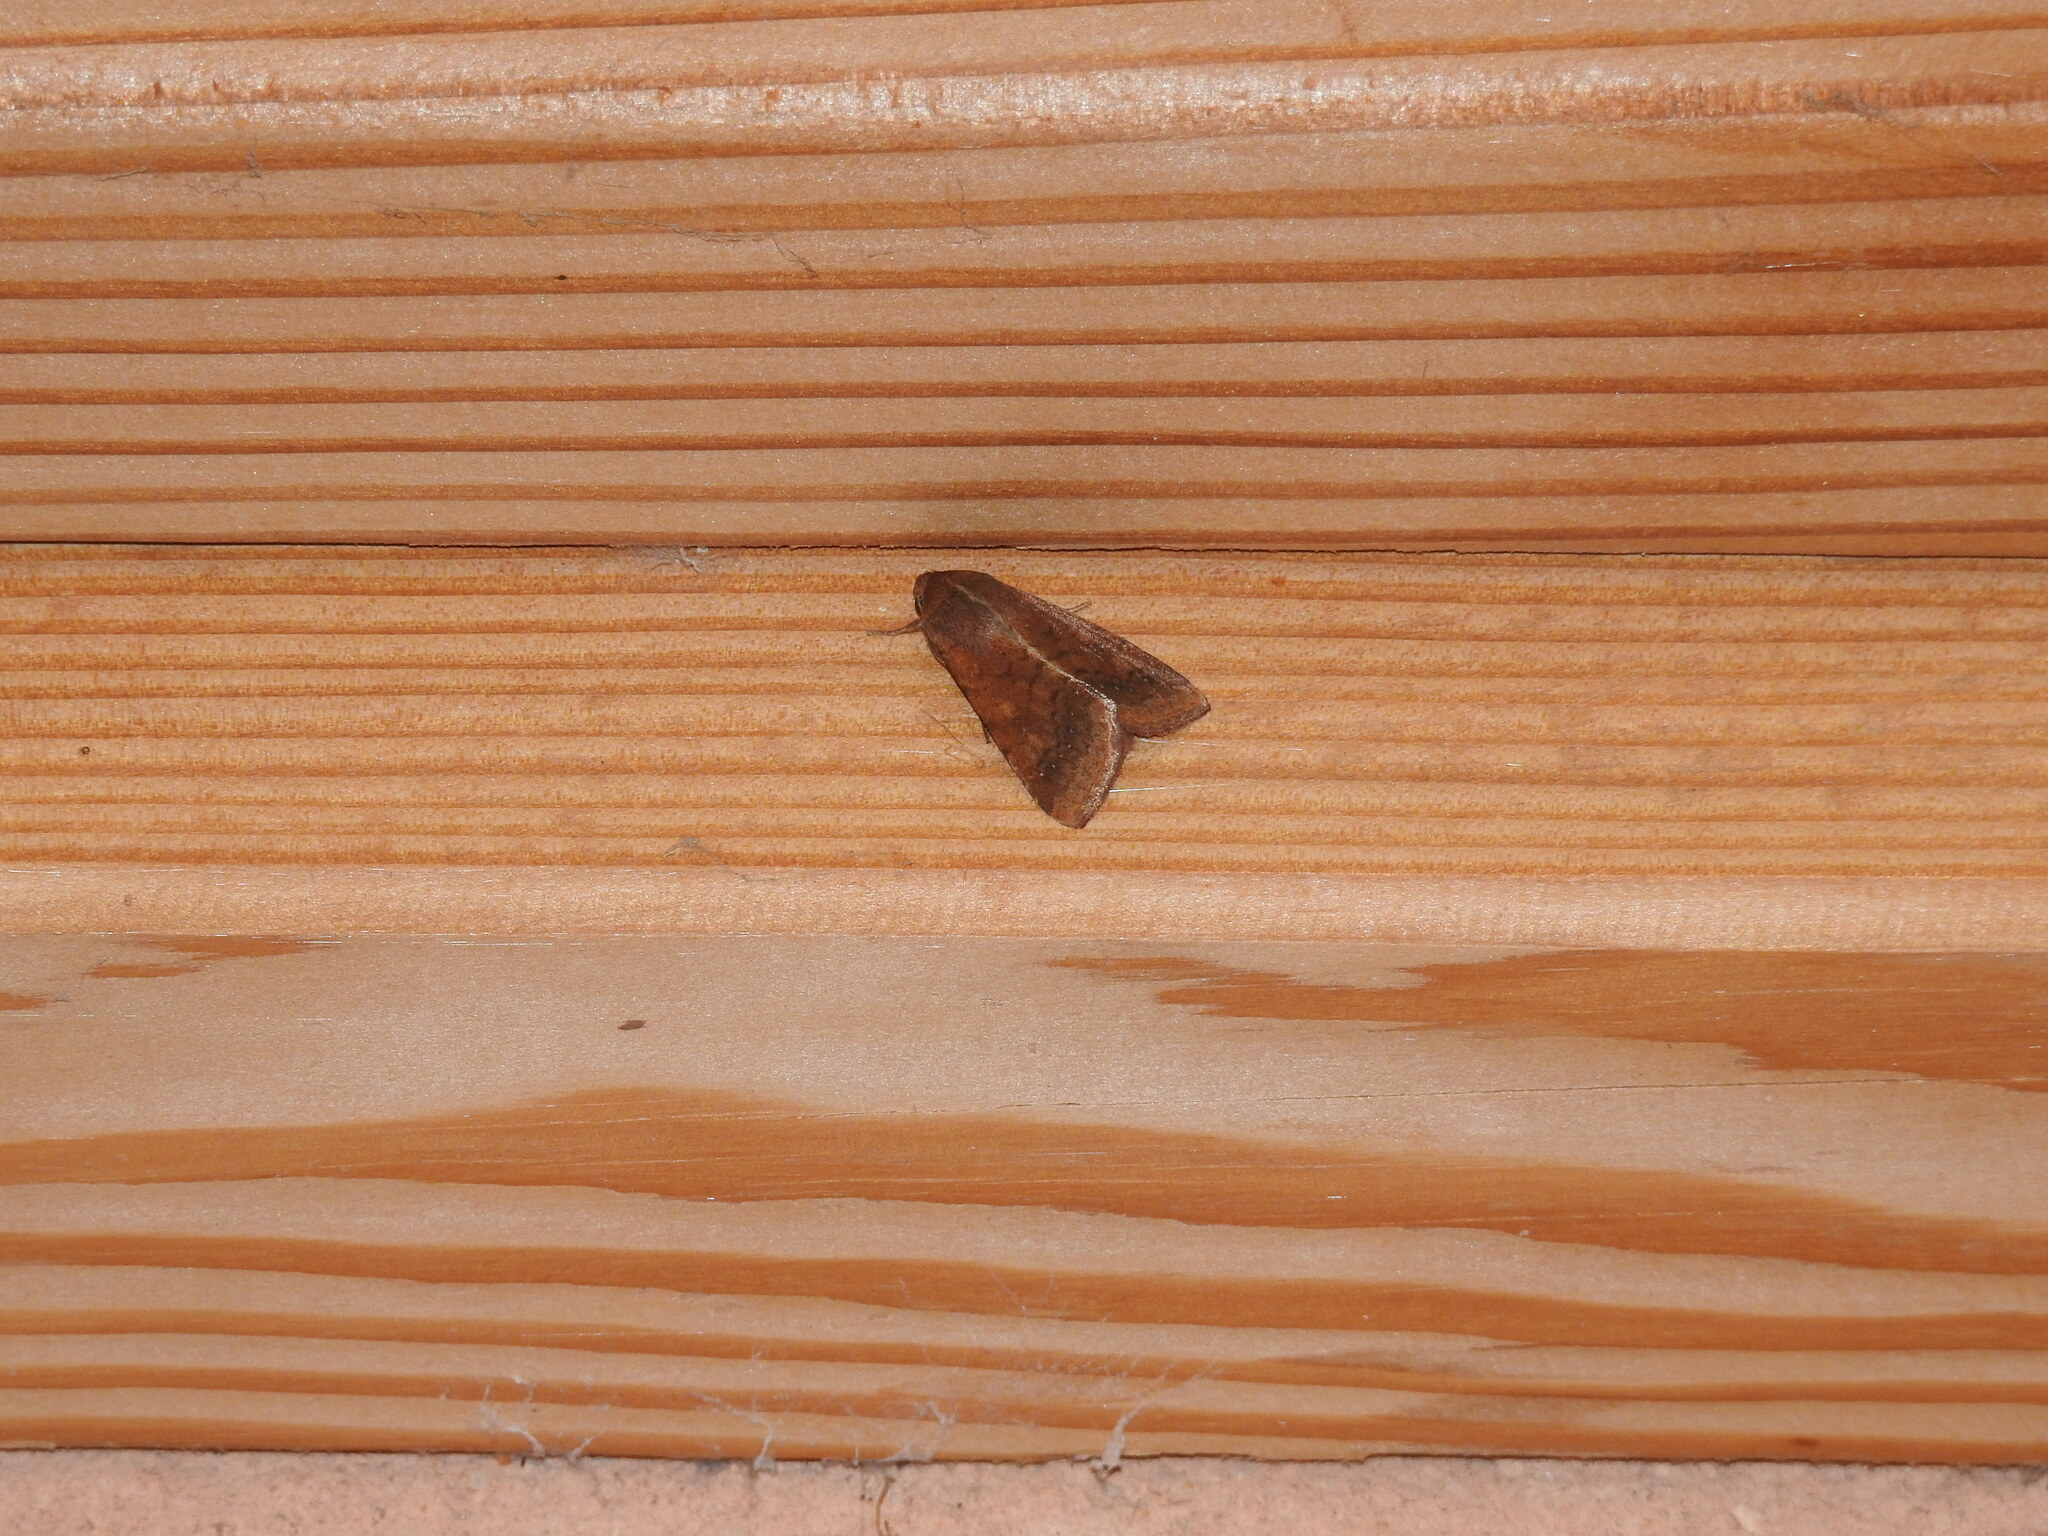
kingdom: Animalia
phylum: Arthropoda
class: Insecta
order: Lepidoptera
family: Noctuidae
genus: Helicoverpa
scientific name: Helicoverpa armigera
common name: Cotton bollworm
